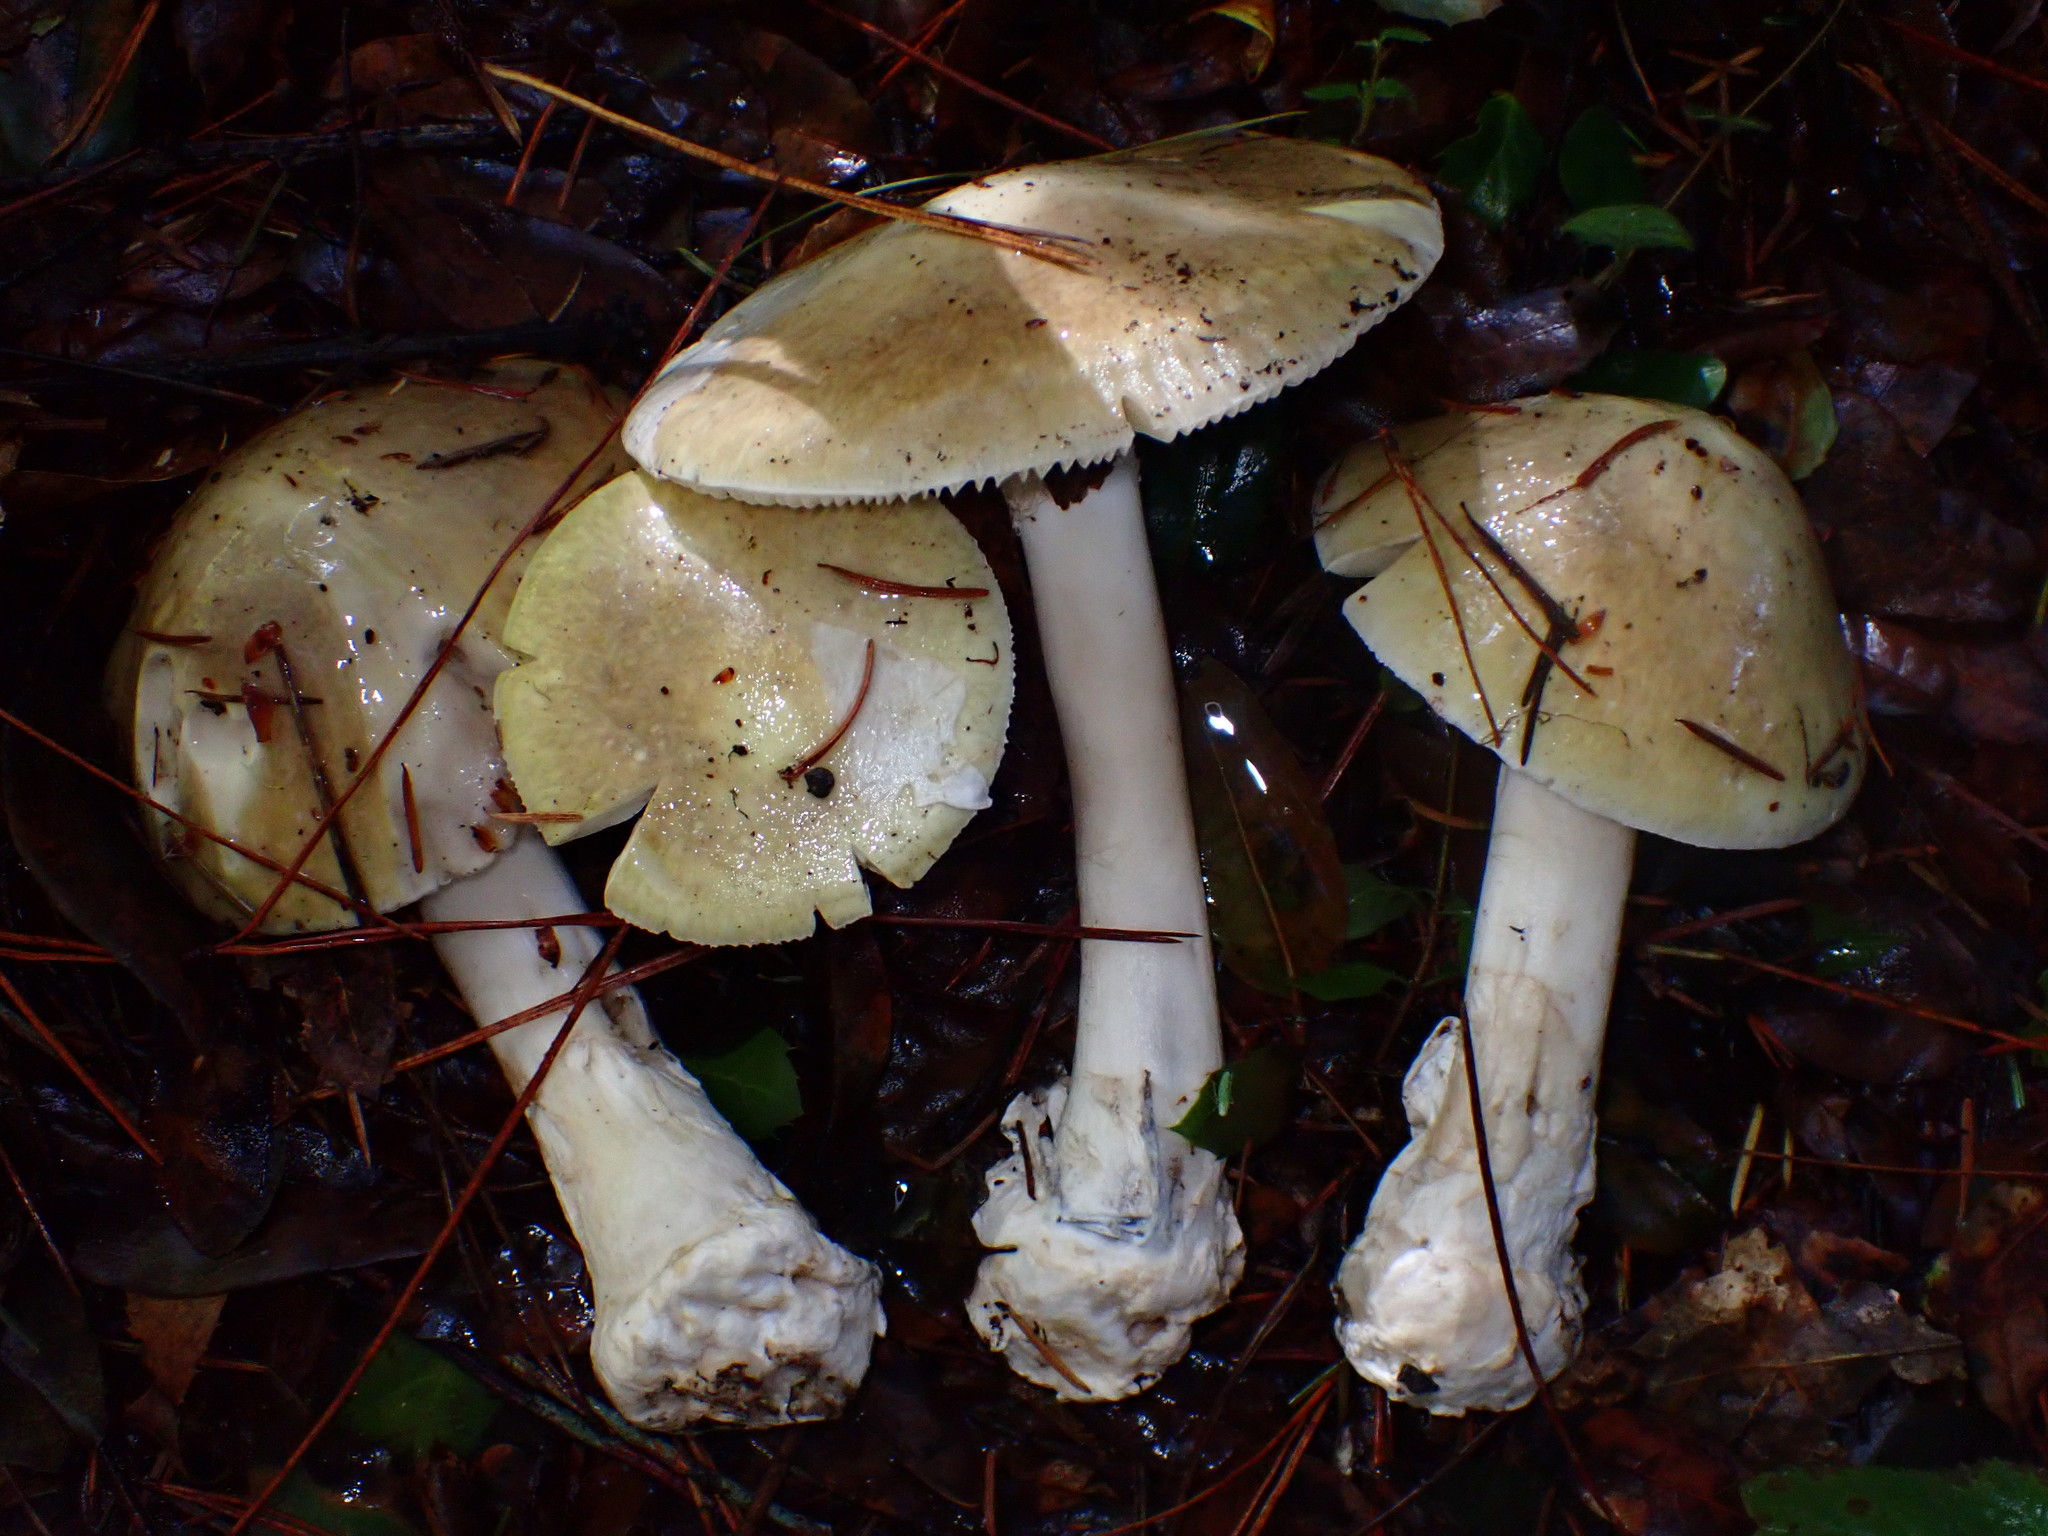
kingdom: Fungi
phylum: Basidiomycota
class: Agaricomycetes
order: Agaricales
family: Amanitaceae
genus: Amanita
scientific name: Amanita phalloides
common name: Death cap
